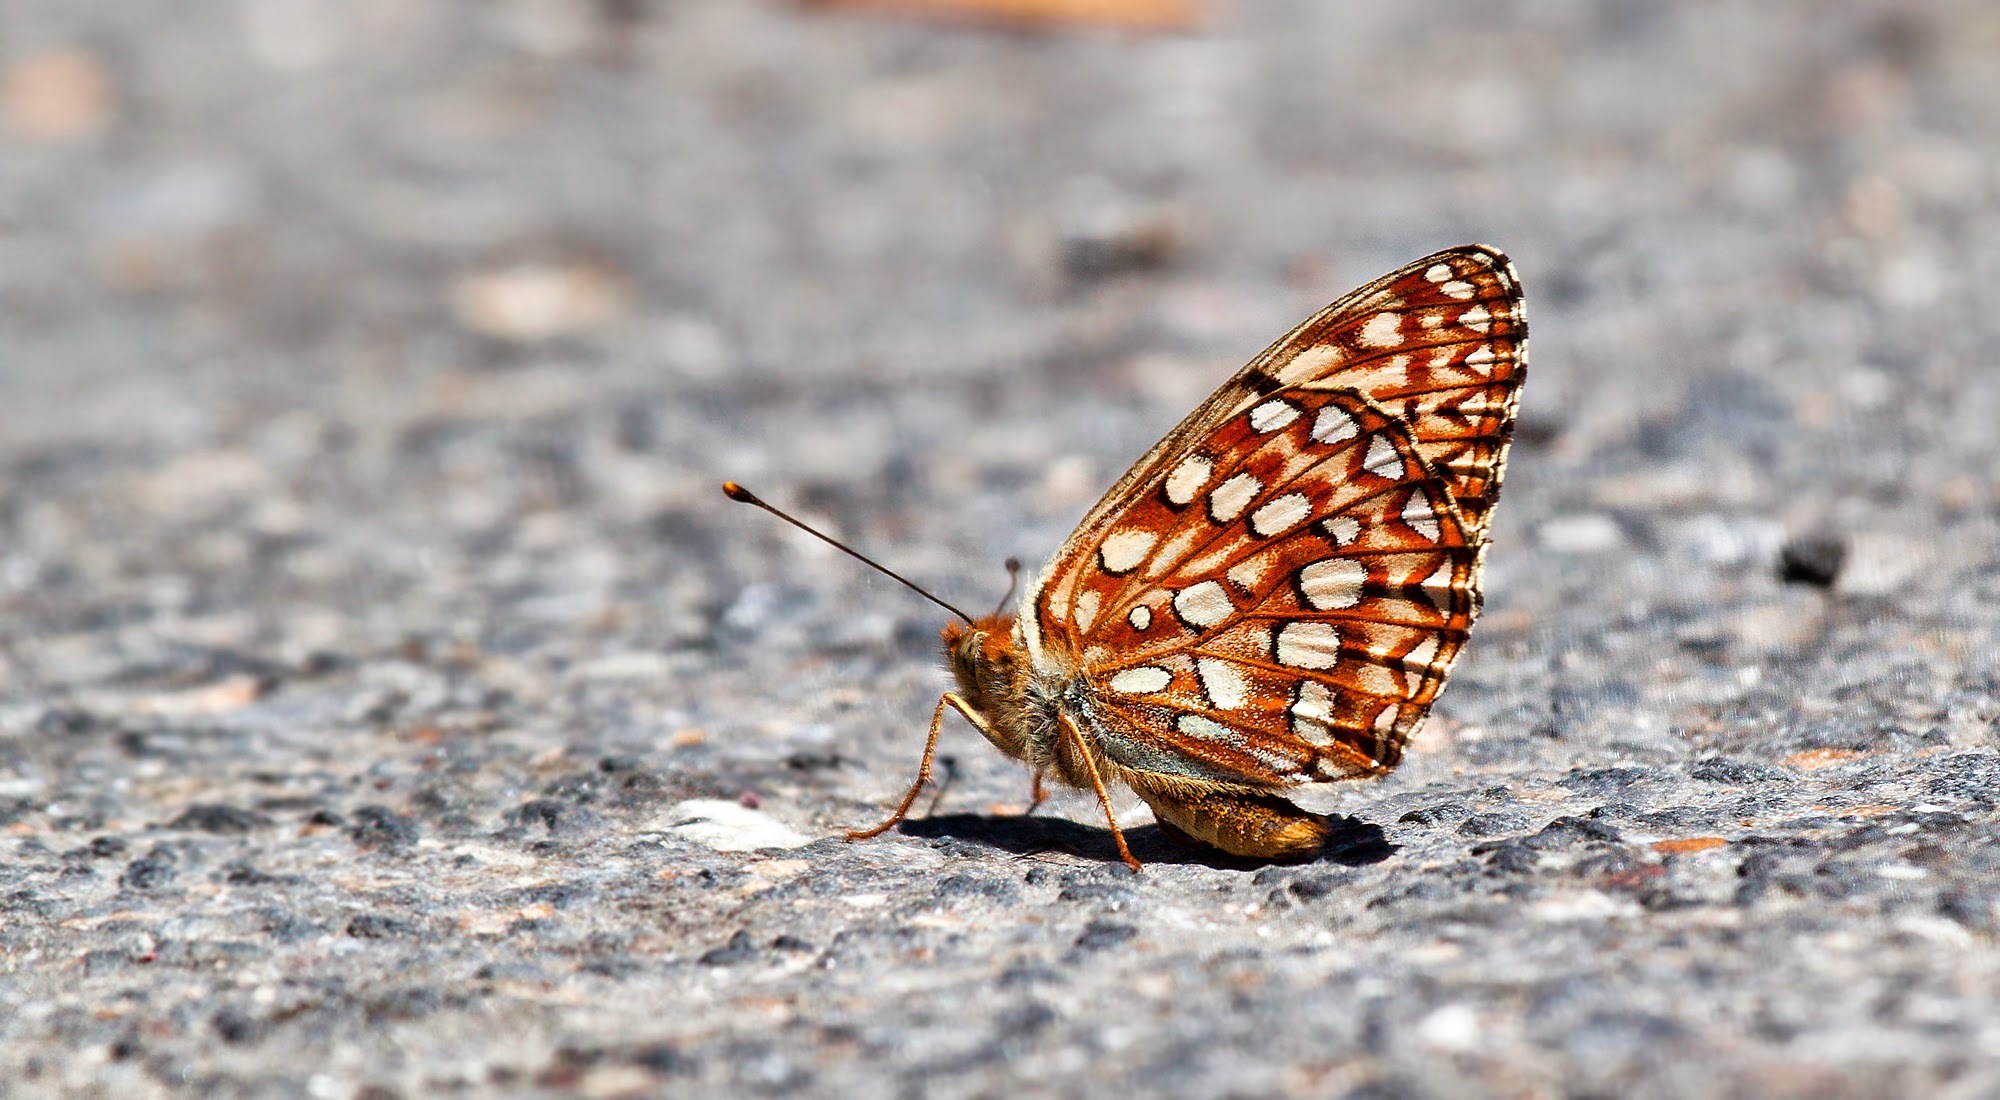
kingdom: Animalia
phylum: Arthropoda
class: Insecta
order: Lepidoptera
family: Nymphalidae
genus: Speyeria
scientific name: Speyeria atlantis
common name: Atlantis fritillary
